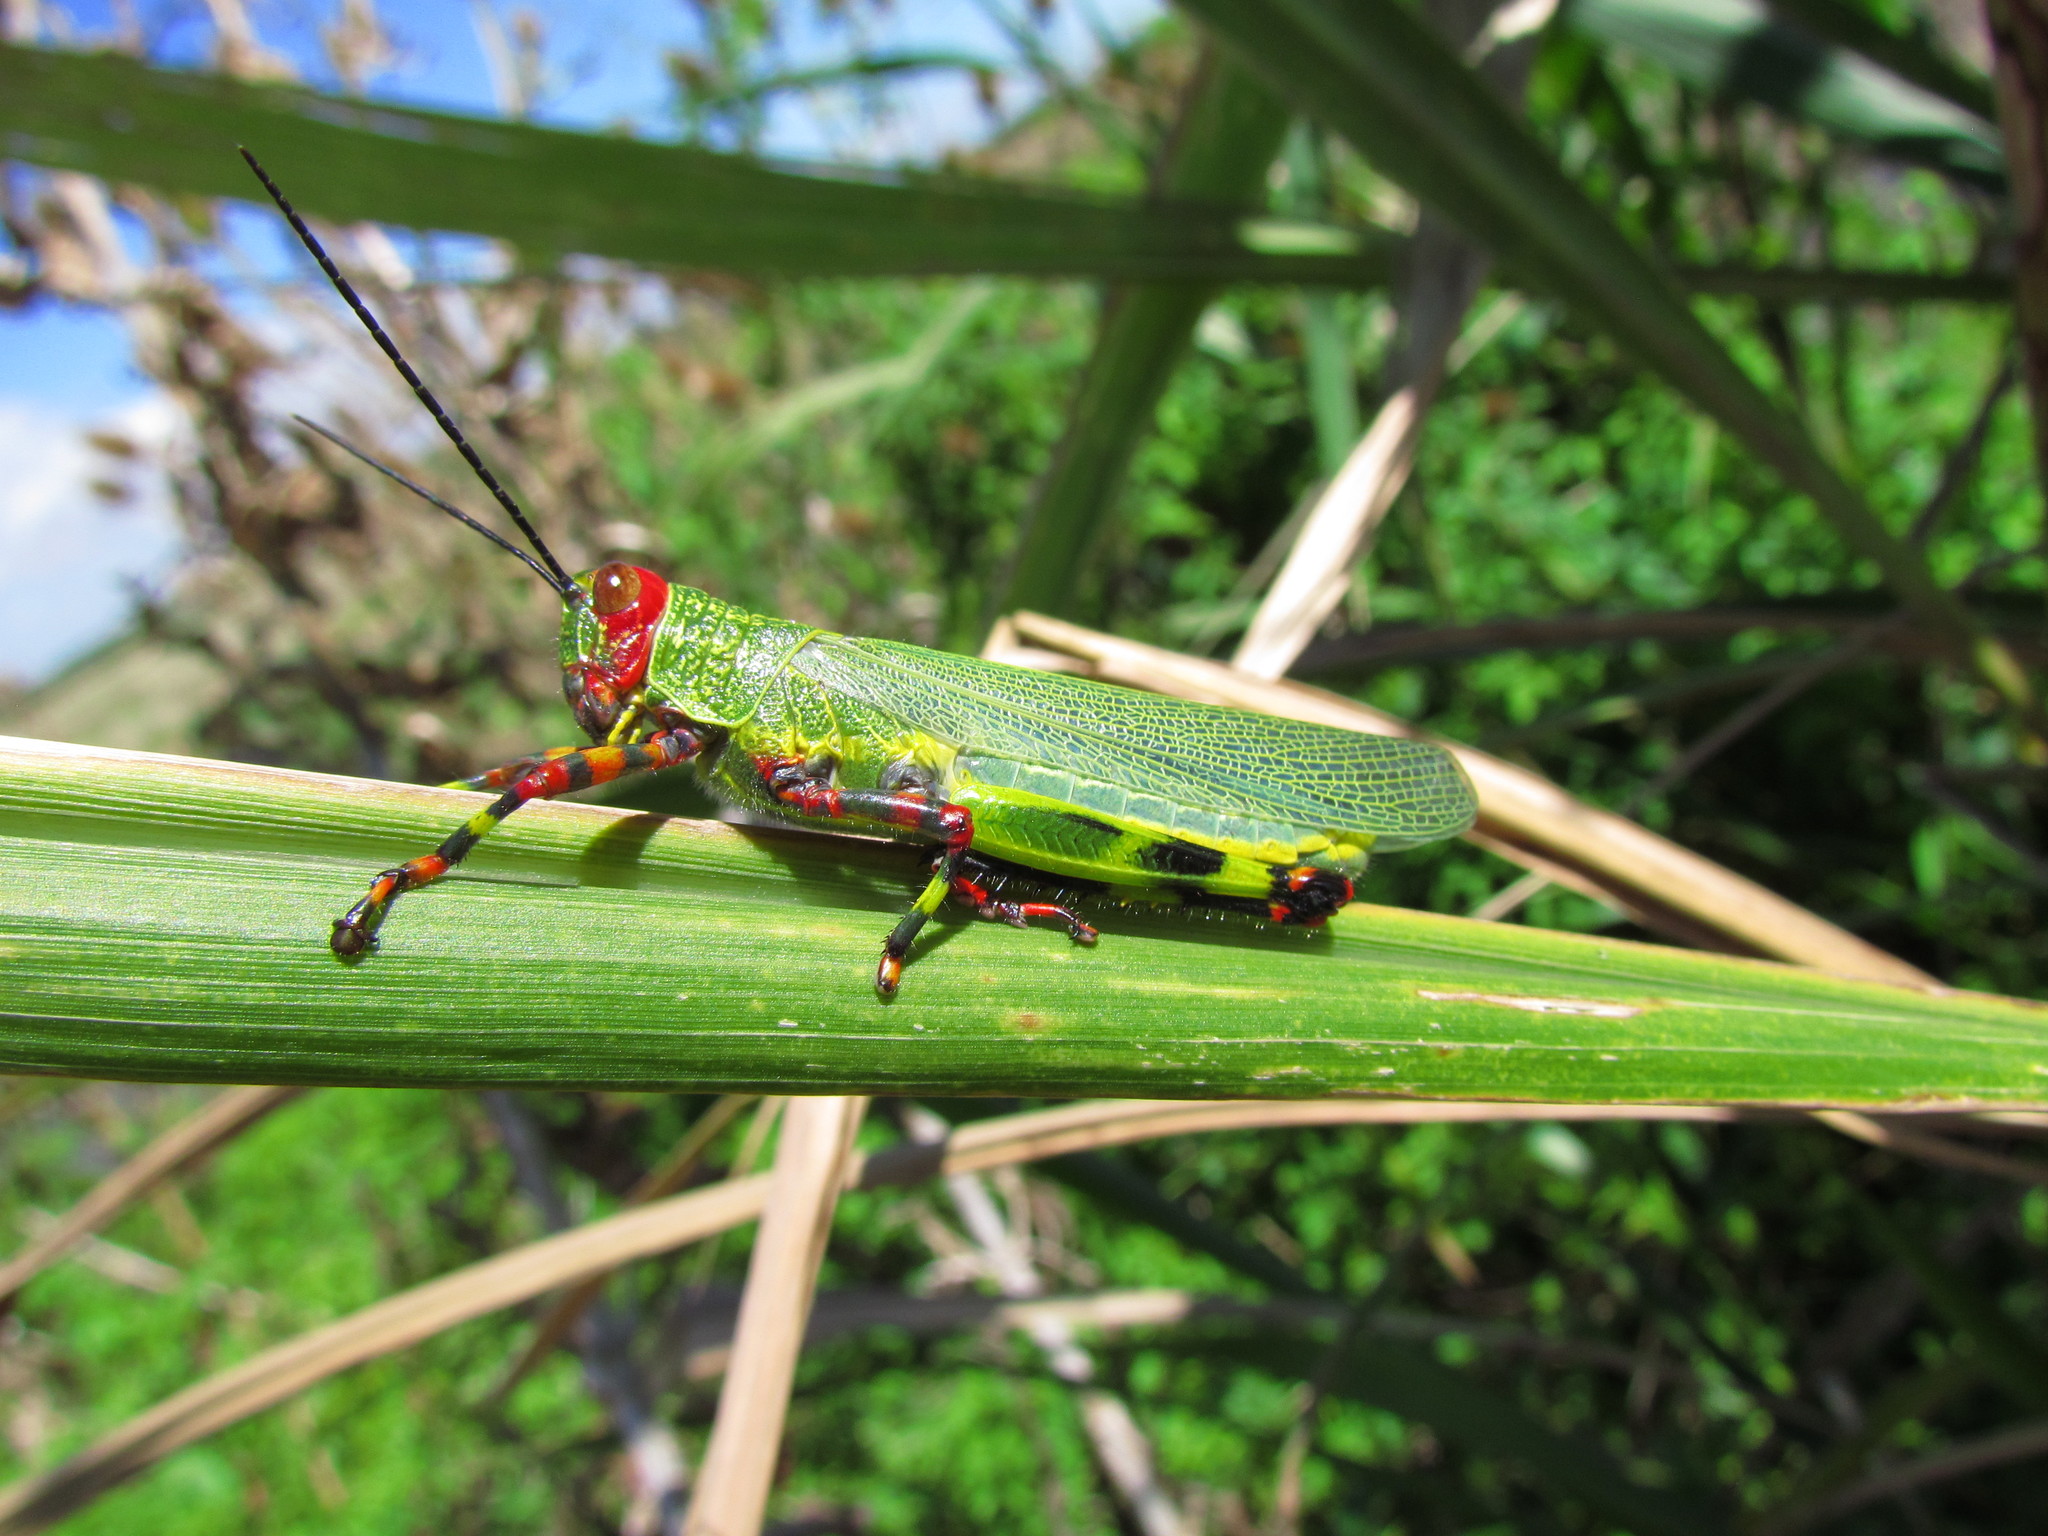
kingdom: Animalia
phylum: Arthropoda
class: Insecta
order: Orthoptera
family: Romaleidae
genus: Zoniopoda
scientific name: Zoniopoda tarsata
